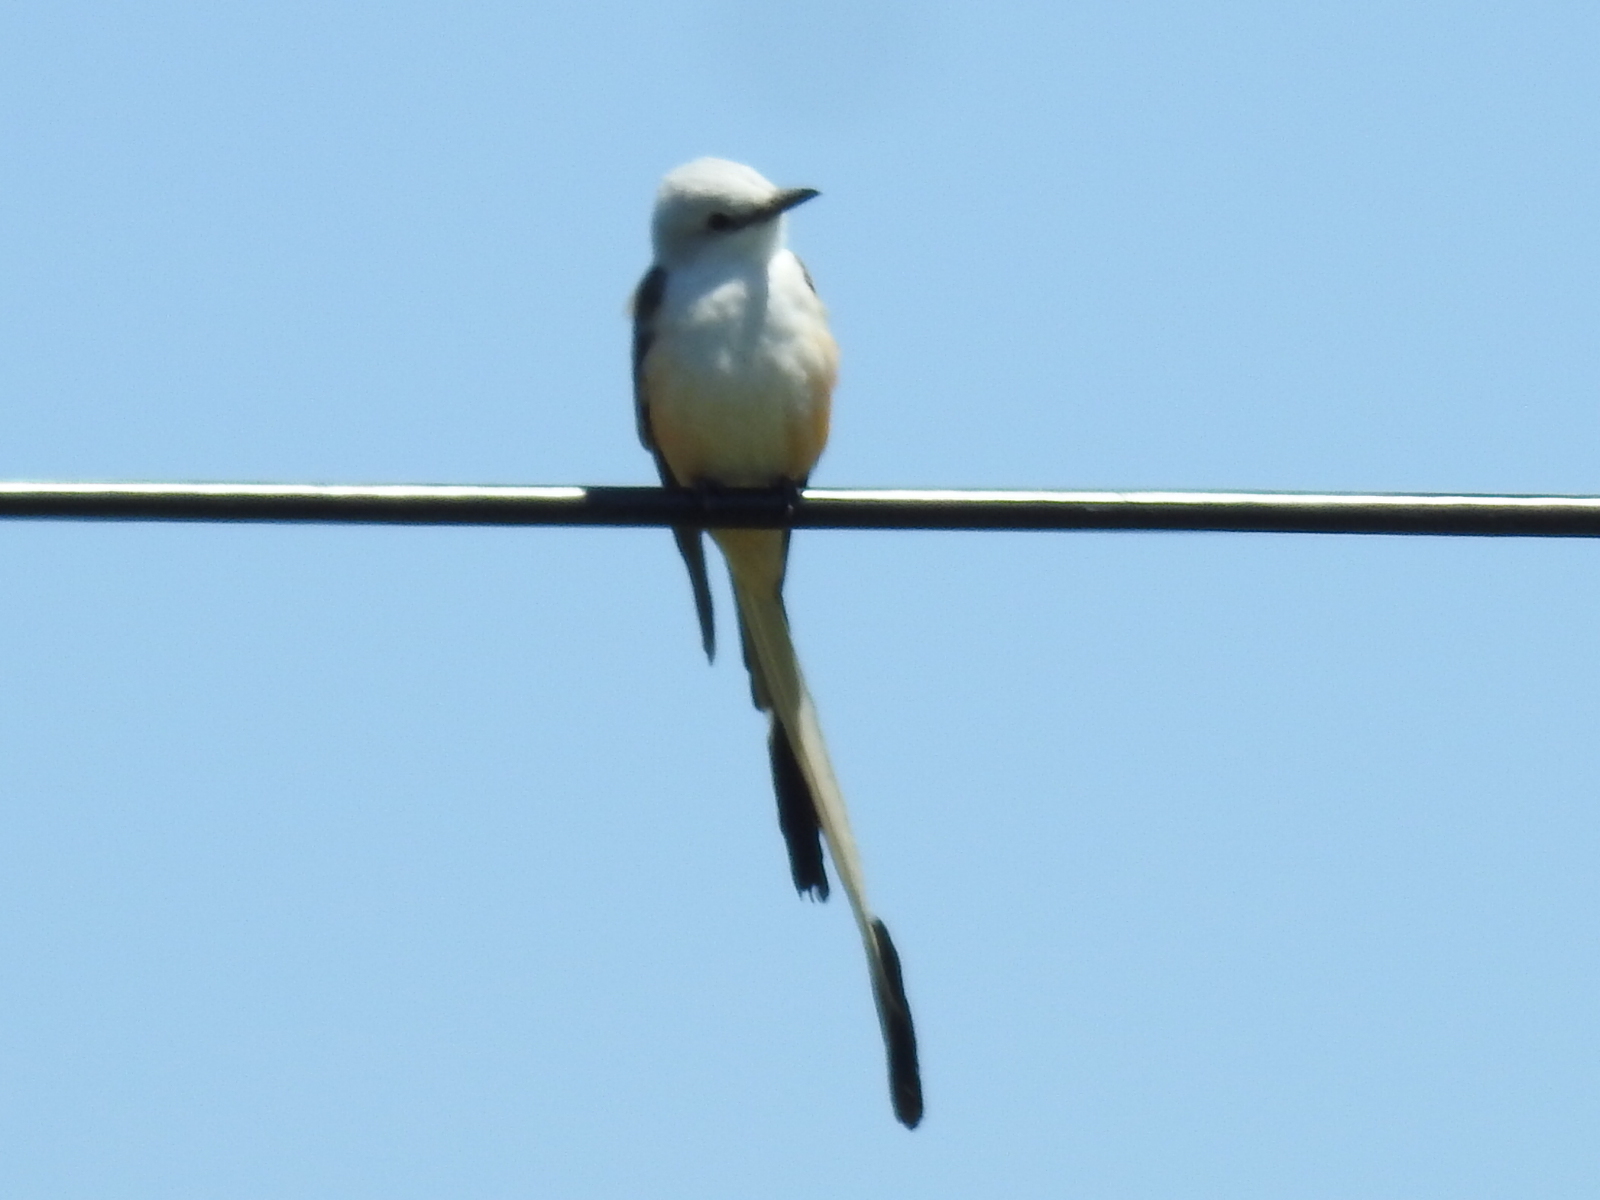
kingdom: Animalia
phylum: Chordata
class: Aves
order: Passeriformes
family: Tyrannidae
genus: Tyrannus
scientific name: Tyrannus forficatus
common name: Scissor-tailed flycatcher
